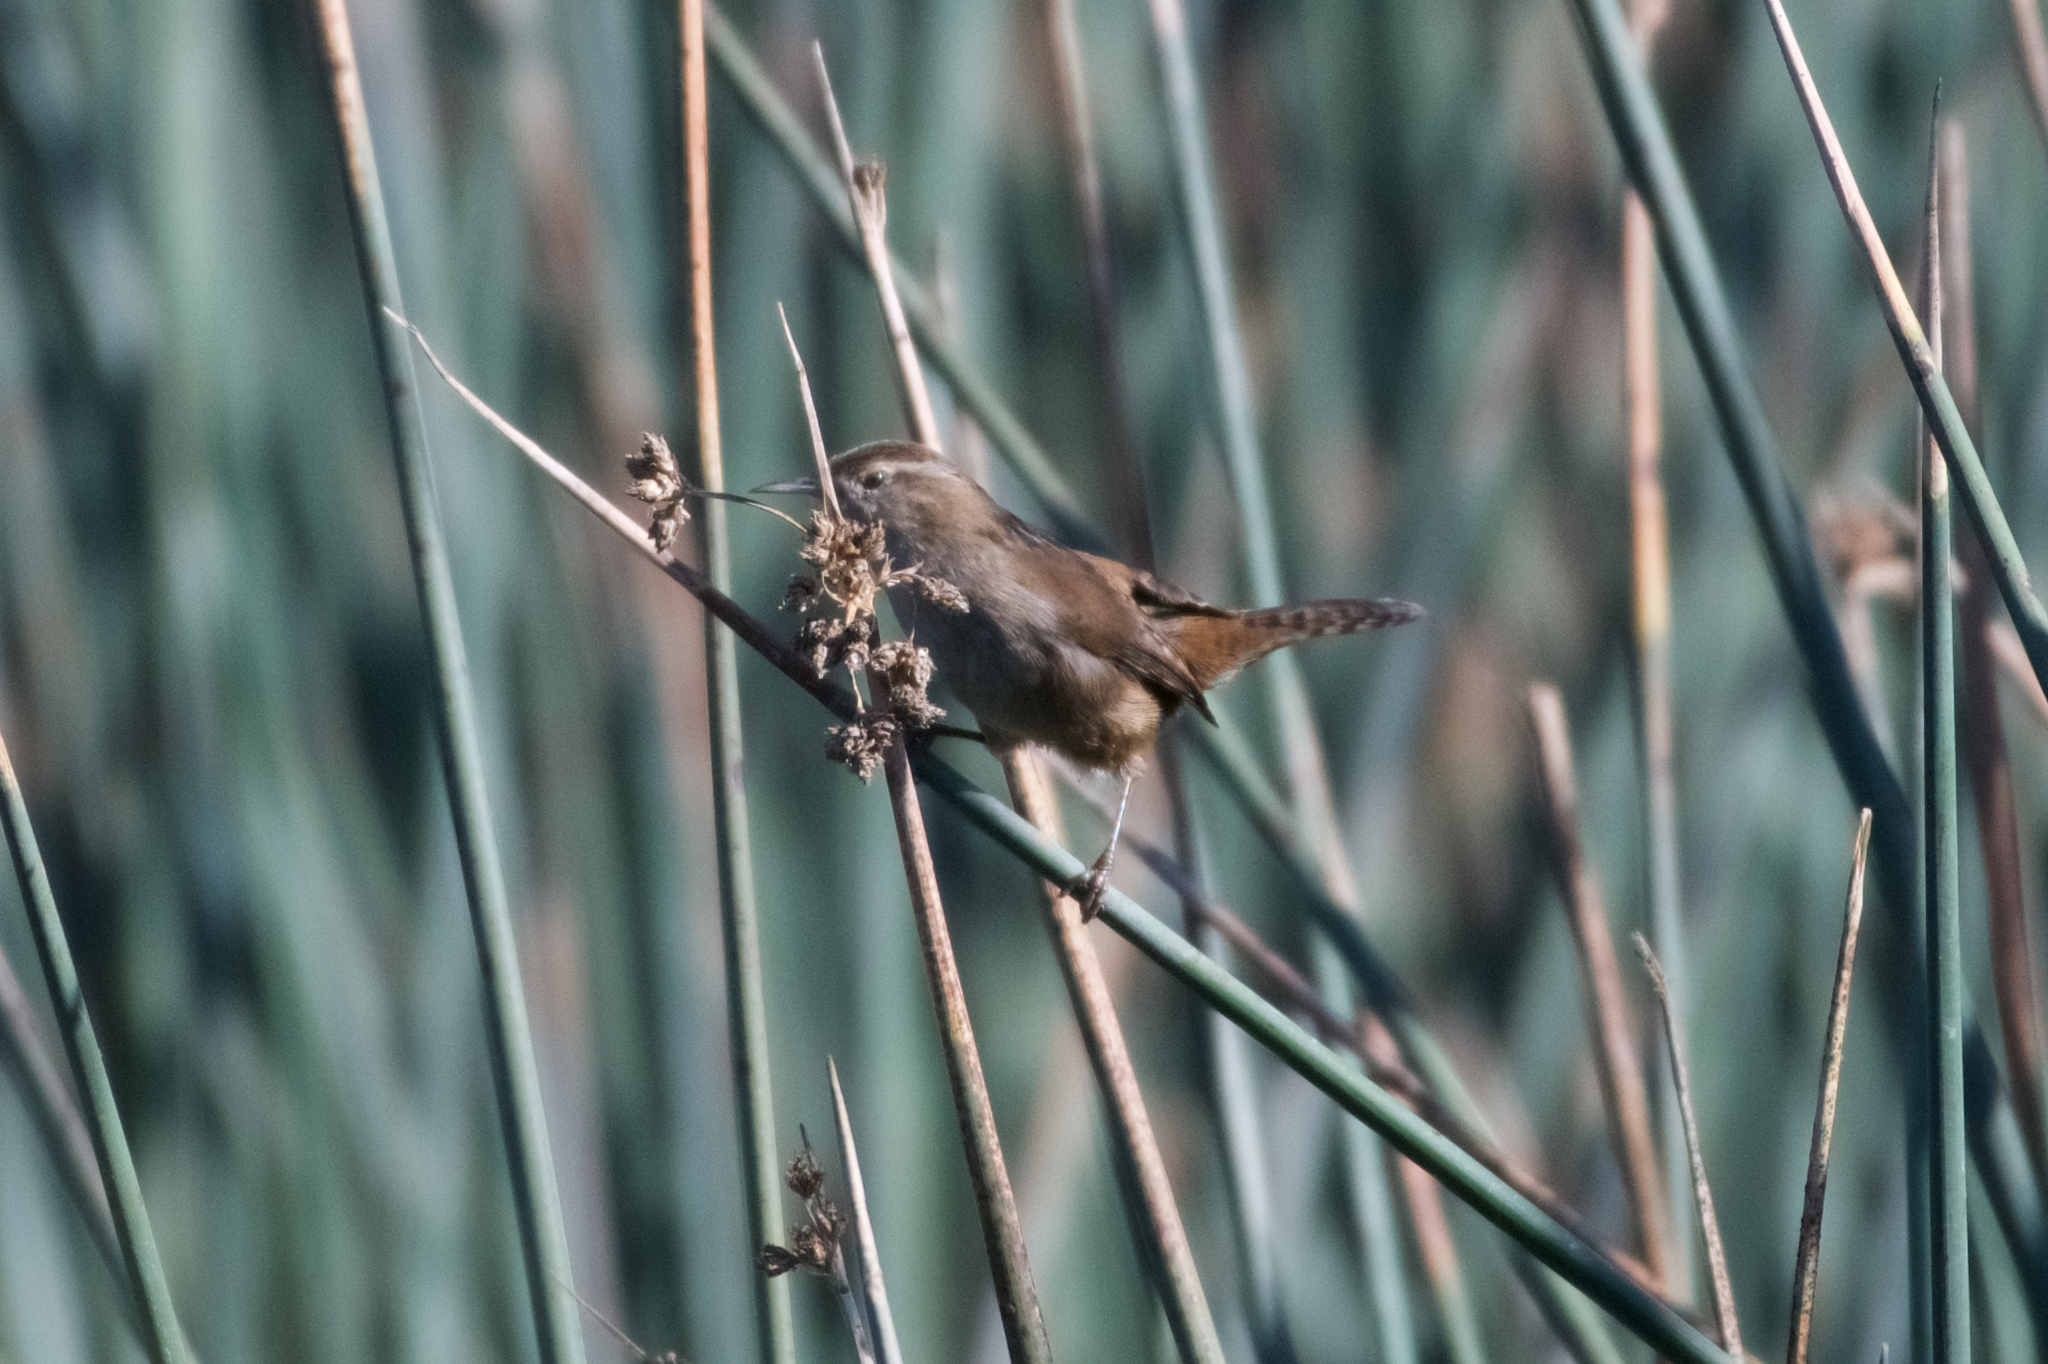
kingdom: Animalia
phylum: Chordata
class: Aves
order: Passeriformes
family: Troglodytidae
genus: Cistothorus
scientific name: Cistothorus palustris
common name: Marsh wren
